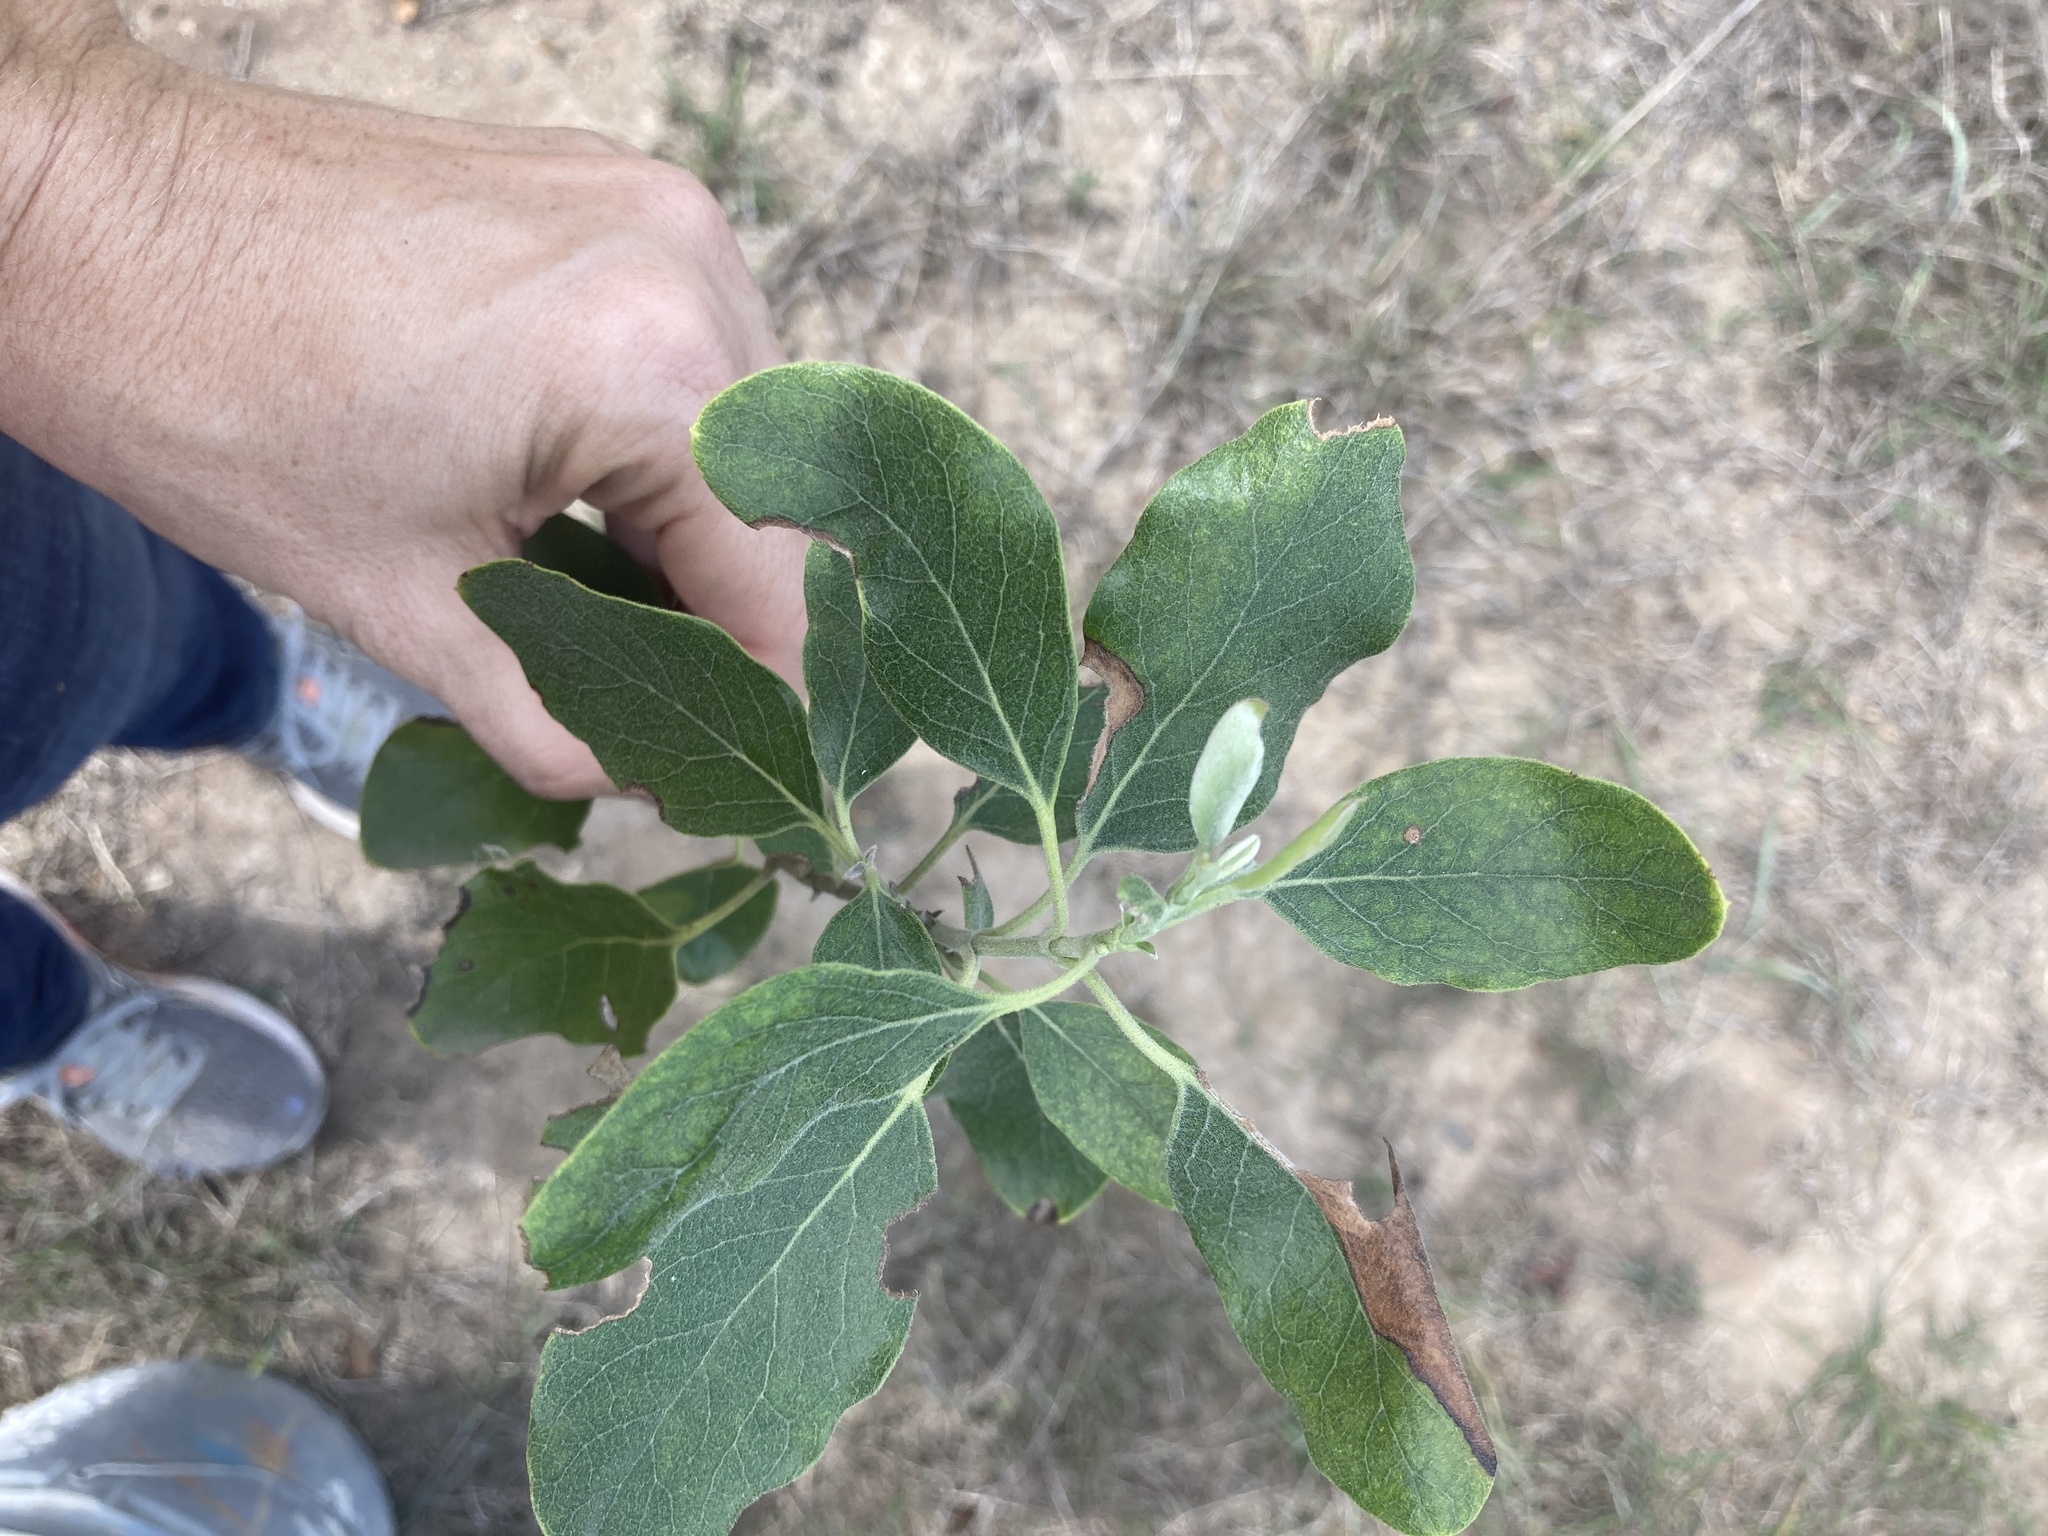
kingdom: Plantae
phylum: Tracheophyta
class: Magnoliopsida
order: Garryales
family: Garryaceae
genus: Garrya
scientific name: Garrya lindheimeri
